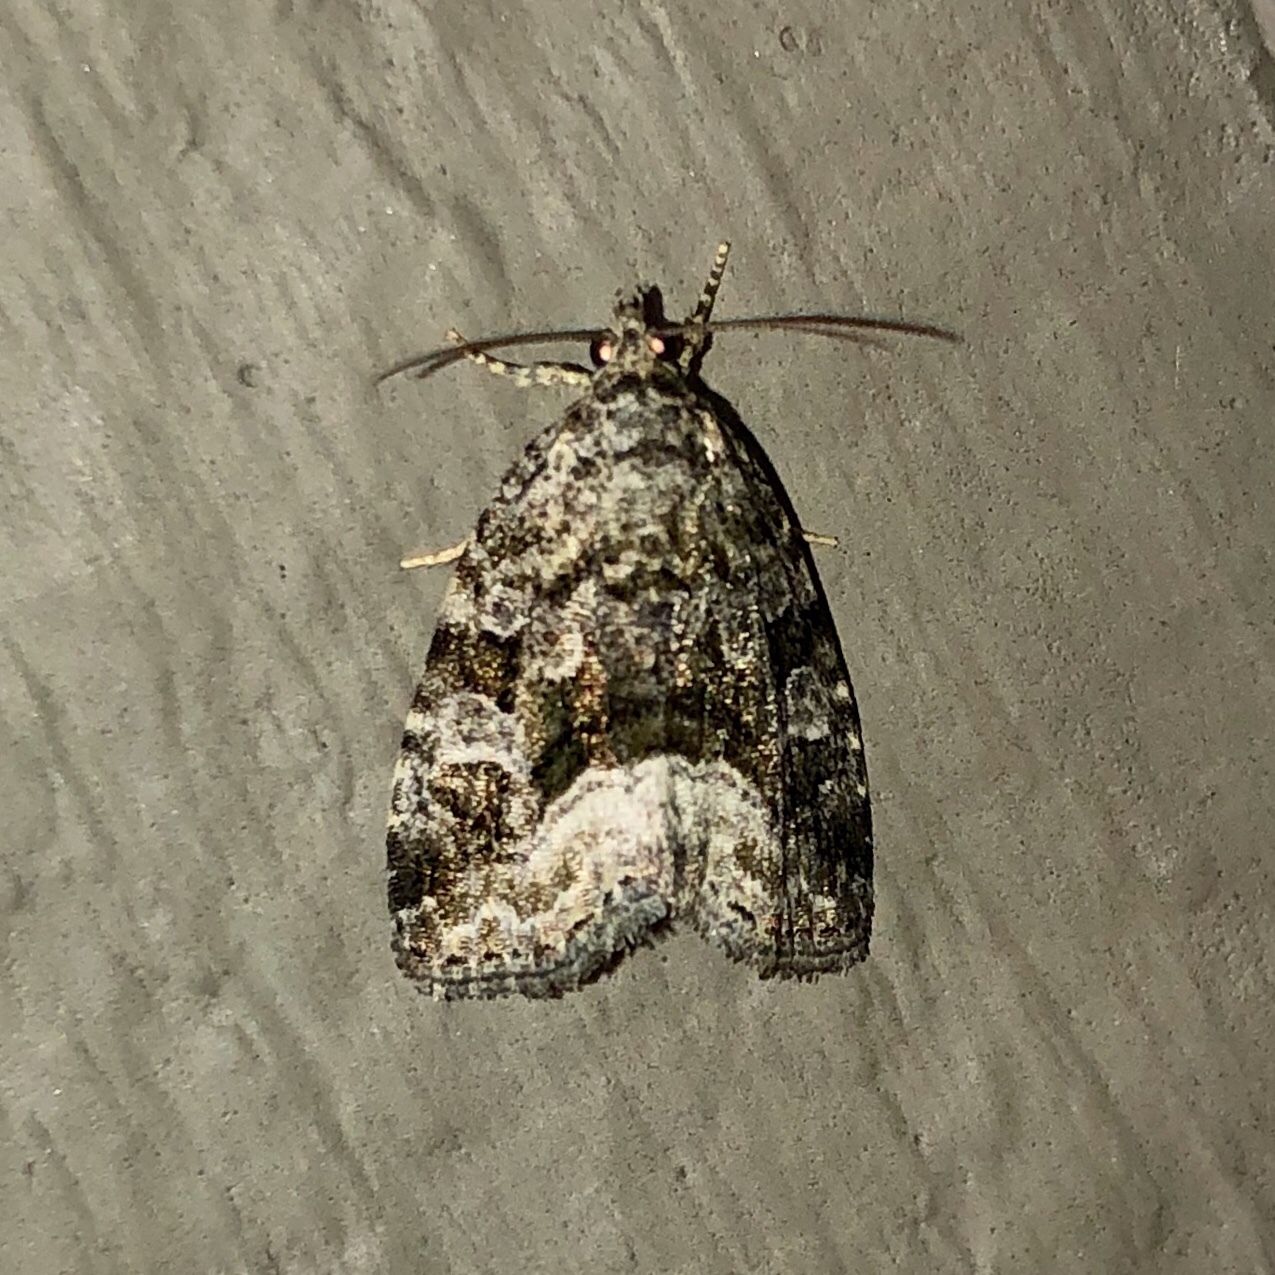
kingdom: Animalia
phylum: Arthropoda
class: Insecta
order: Lepidoptera
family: Noctuidae
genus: Protodeltote
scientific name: Protodeltote muscosula
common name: Large mossy glyph
